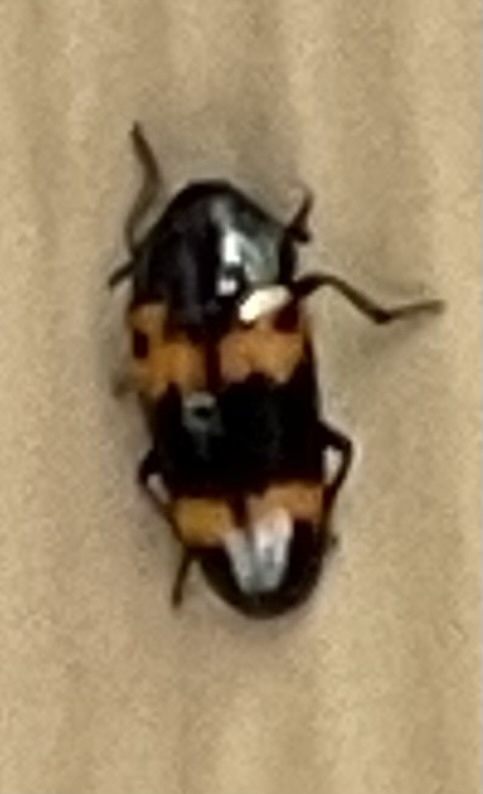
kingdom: Animalia
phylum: Arthropoda
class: Insecta
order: Coleoptera
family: Erotylidae
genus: Megalodacne
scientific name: Megalodacne fasciata
